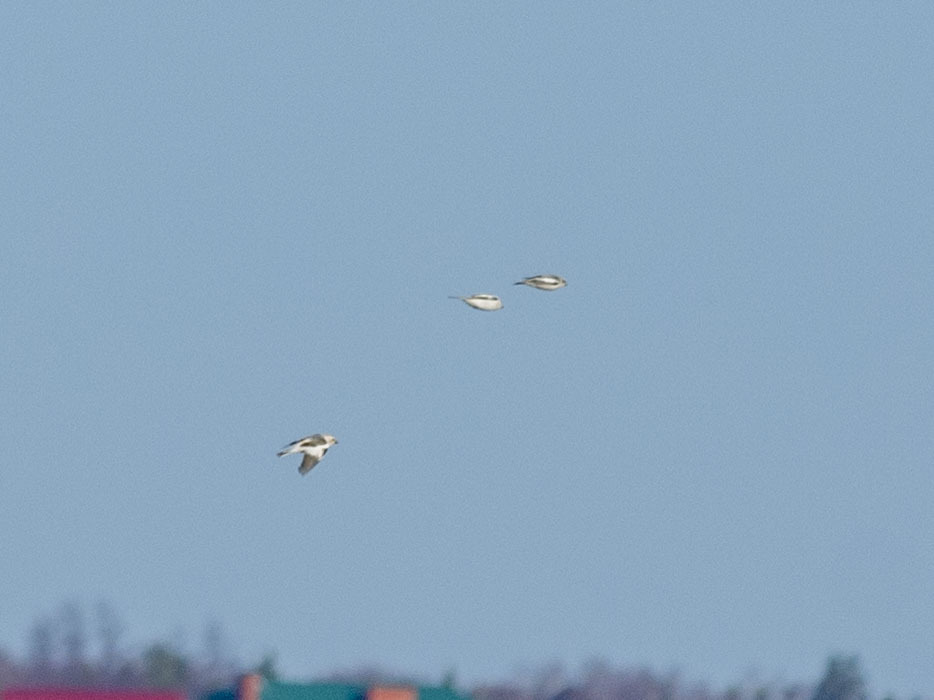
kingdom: Animalia
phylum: Chordata
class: Aves
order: Passeriformes
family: Calcariidae
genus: Plectrophenax
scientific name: Plectrophenax nivalis
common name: Snow bunting
